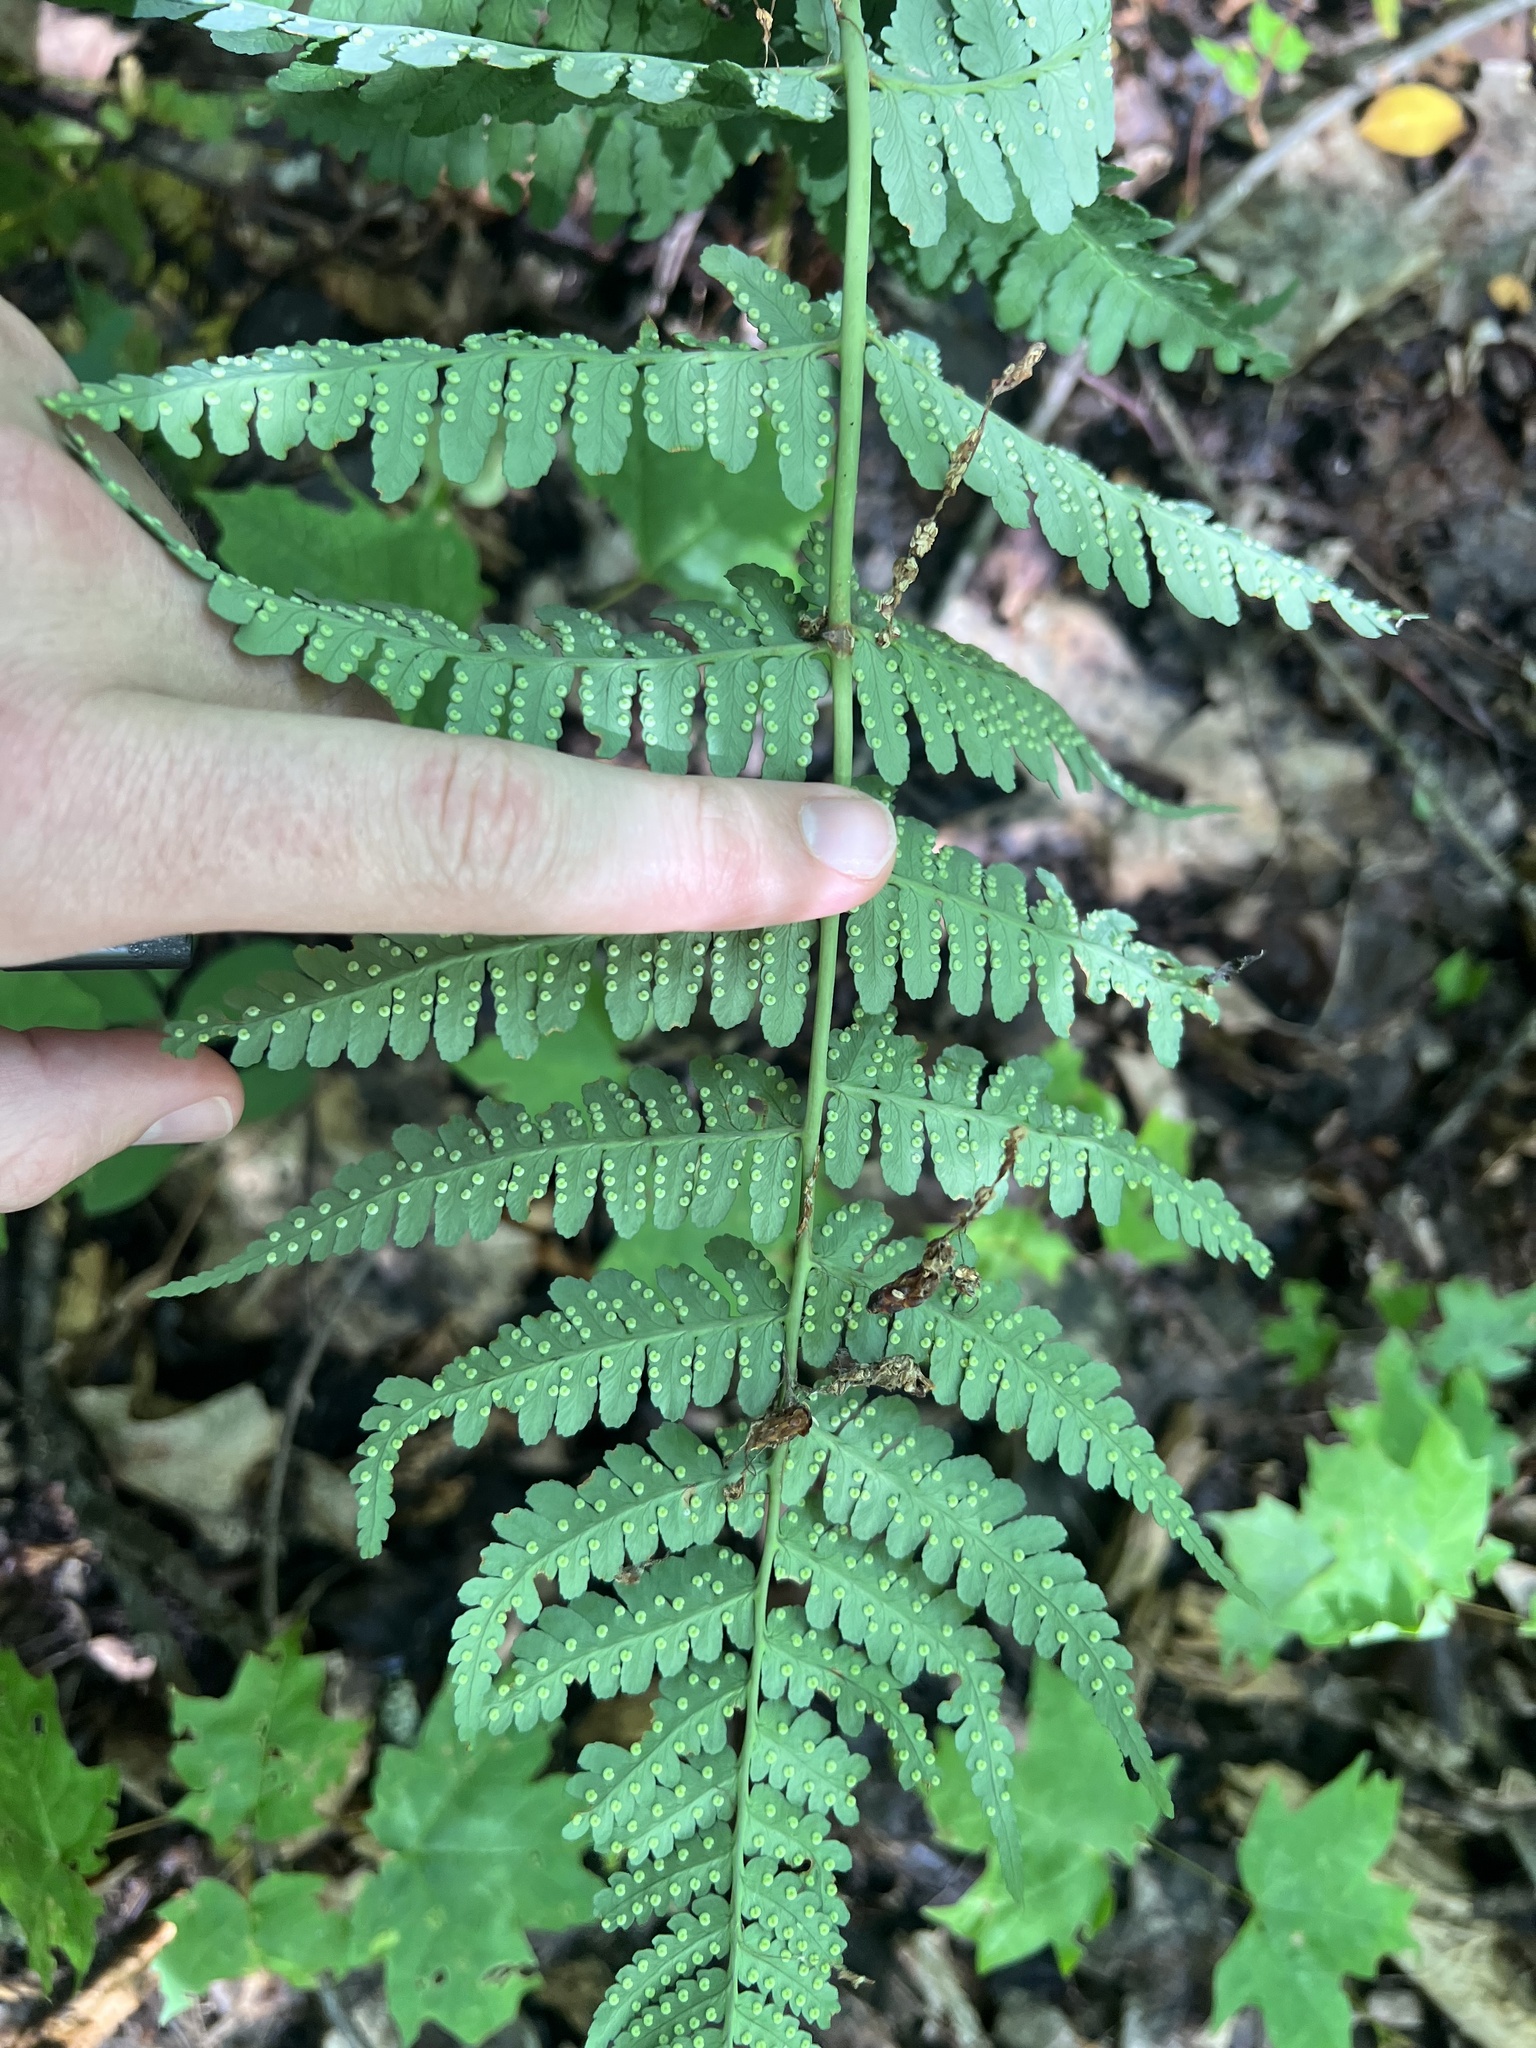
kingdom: Plantae
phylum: Tracheophyta
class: Polypodiopsida
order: Polypodiales
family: Dryopteridaceae
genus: Dryopteris
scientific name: Dryopteris marginalis
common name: Marginal wood fern
